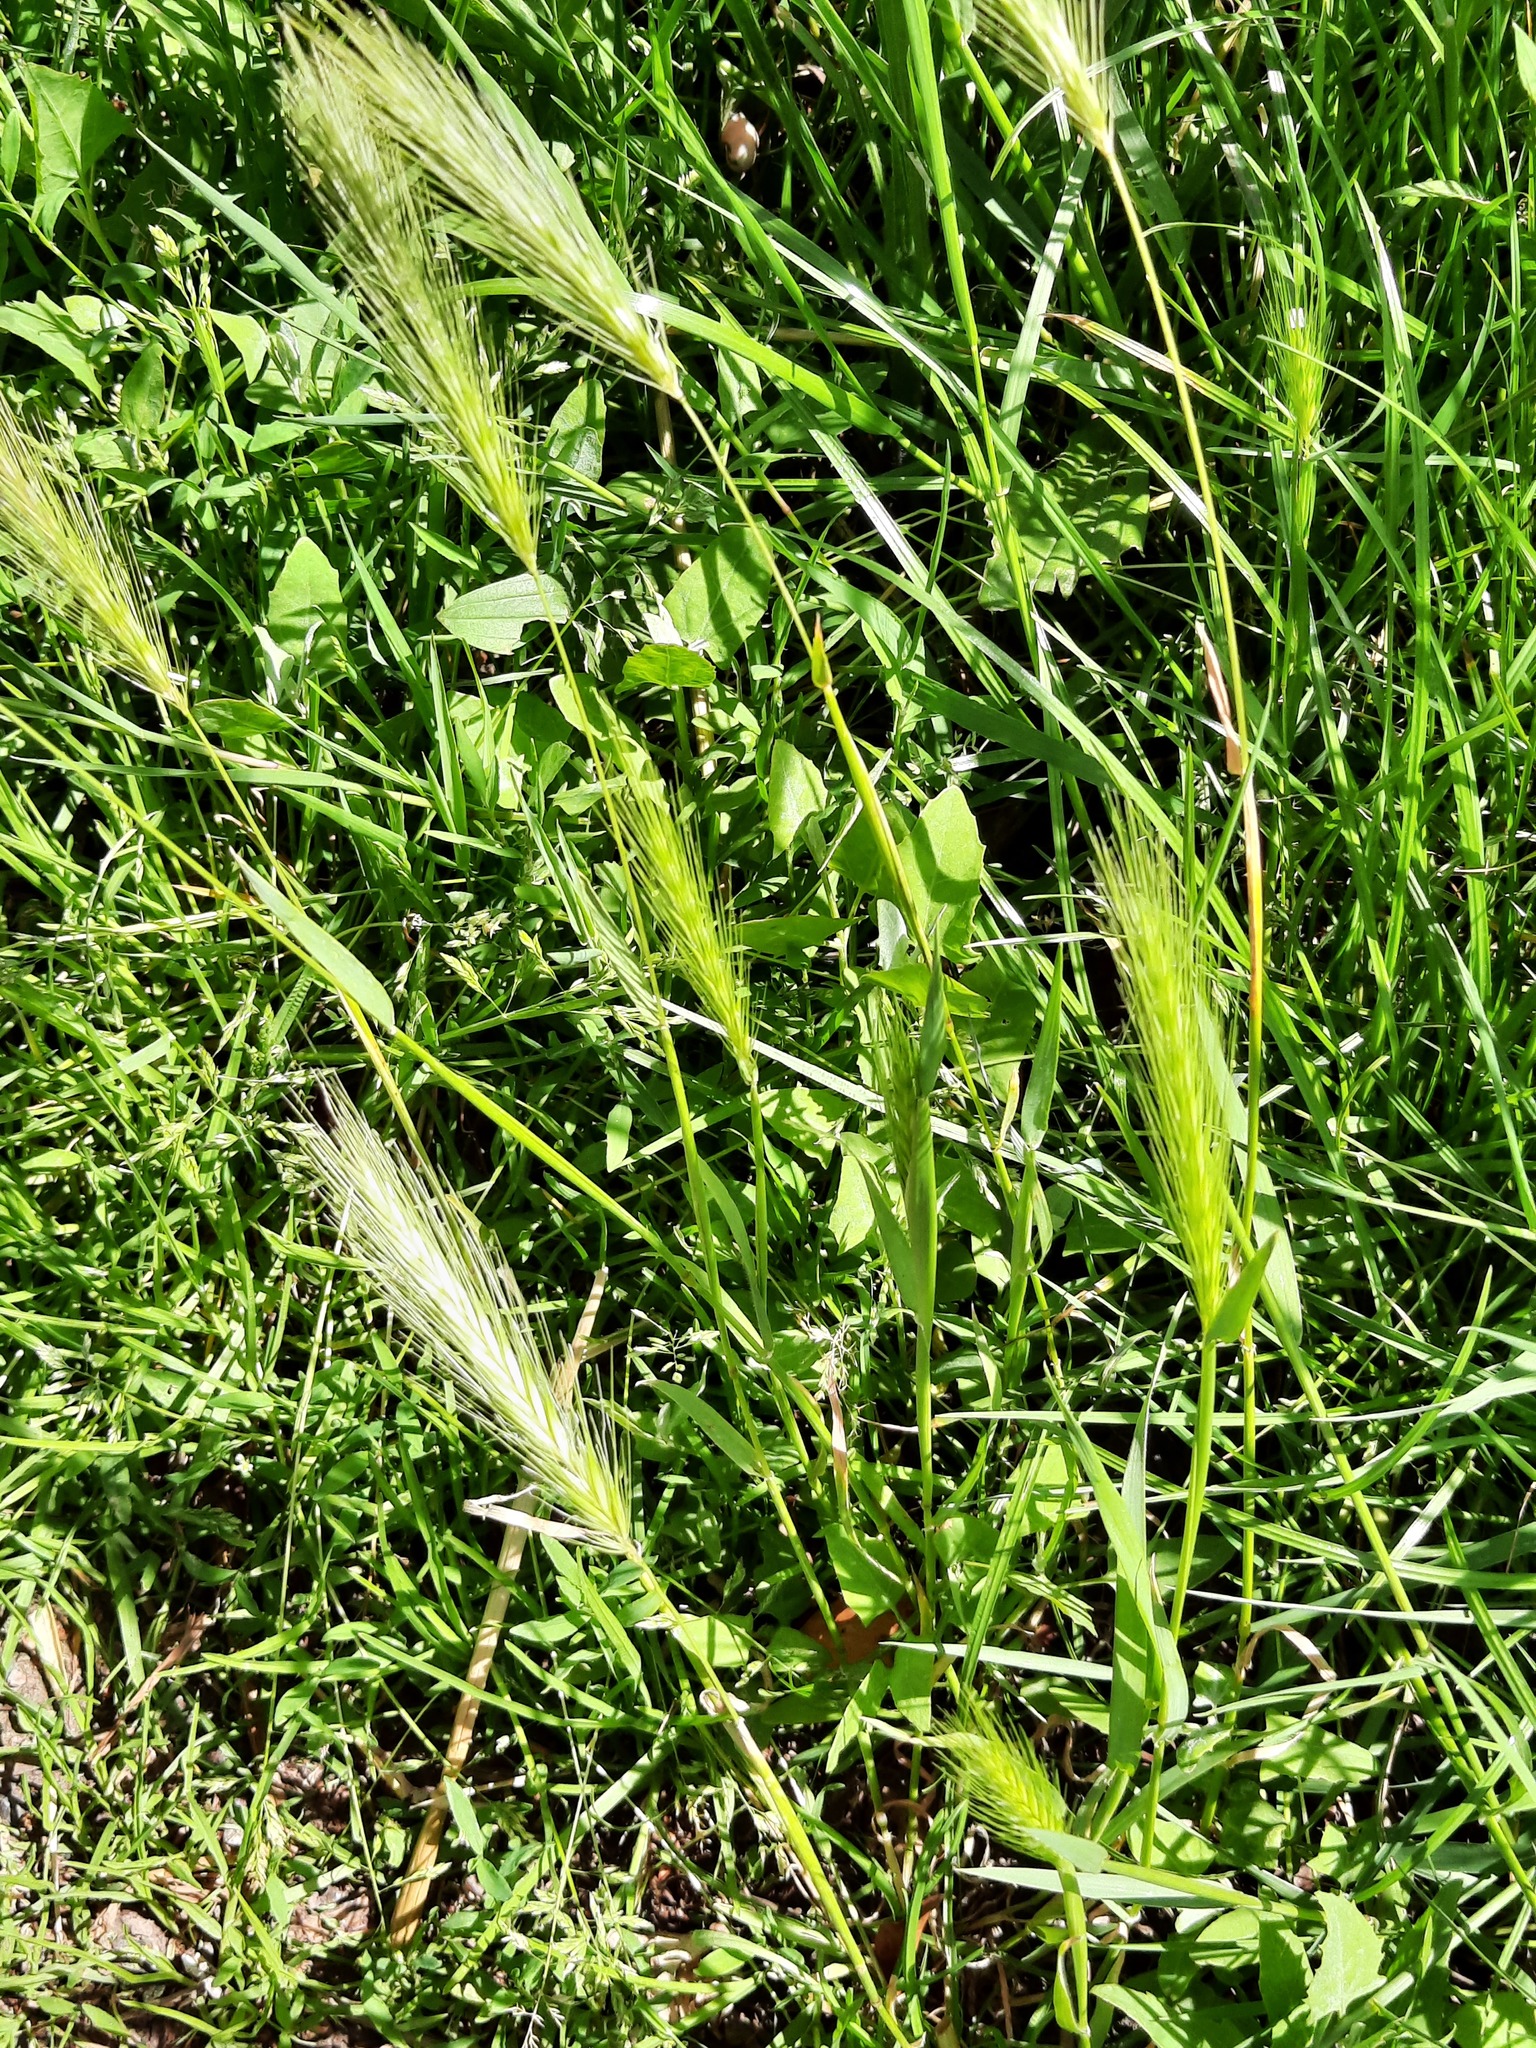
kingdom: Plantae
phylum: Tracheophyta
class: Liliopsida
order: Poales
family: Poaceae
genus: Hordeum
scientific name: Hordeum murinum
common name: Wall barley
